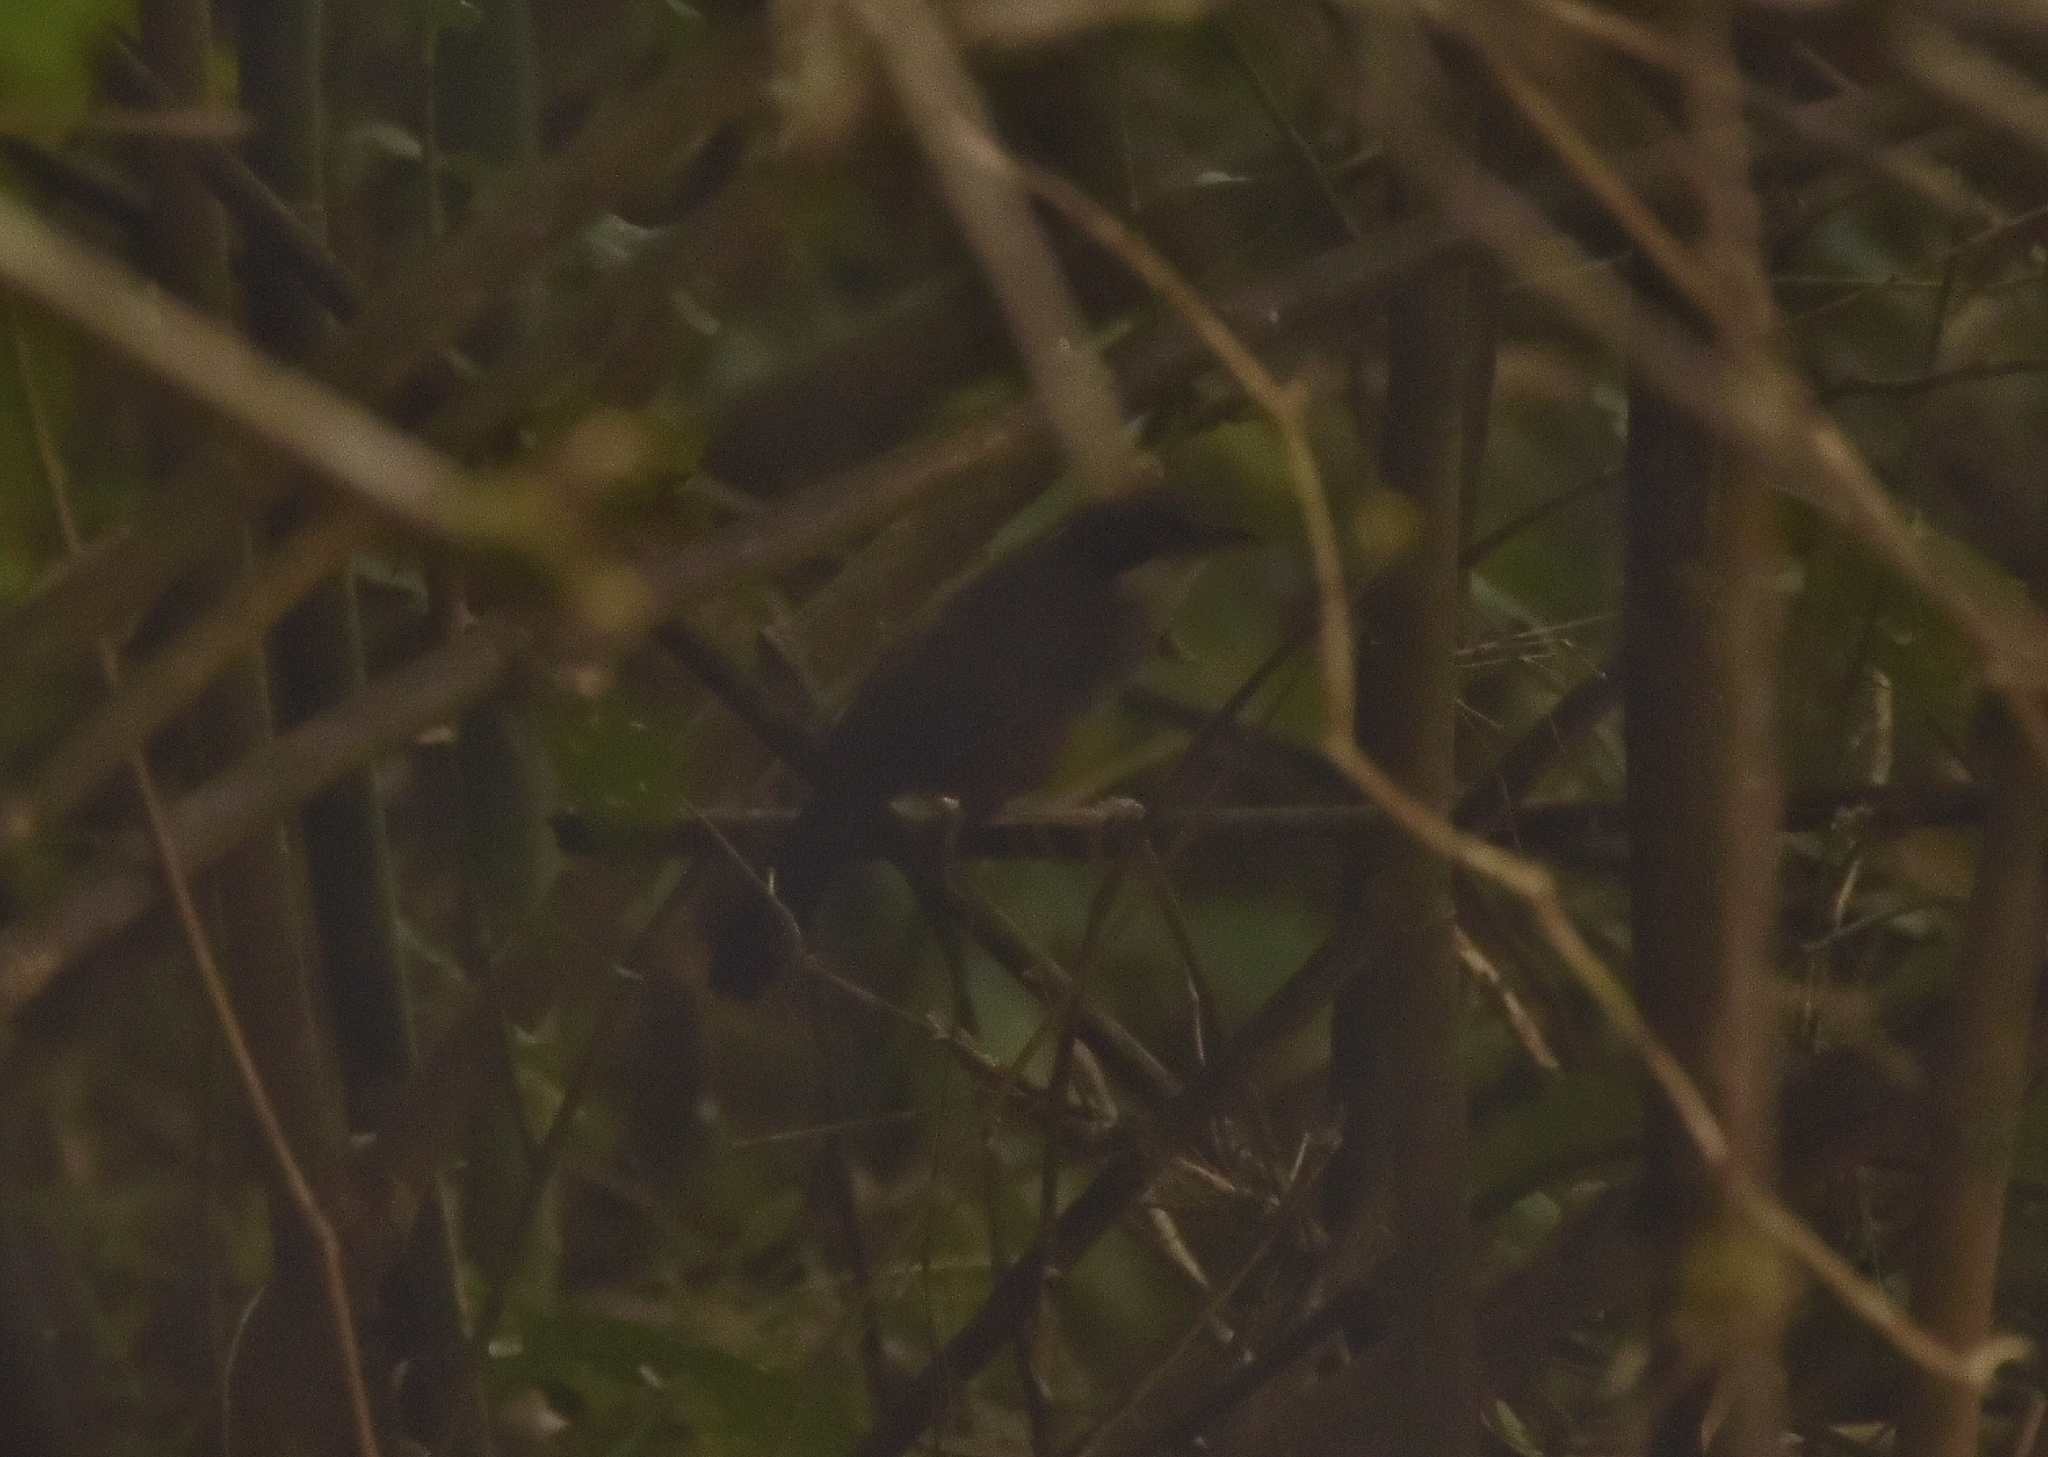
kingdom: Animalia
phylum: Chordata
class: Aves
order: Passeriformes
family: Leiothrichidae
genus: Garrulax
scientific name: Garrulax delesserti
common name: Wynaad laughingthrush
